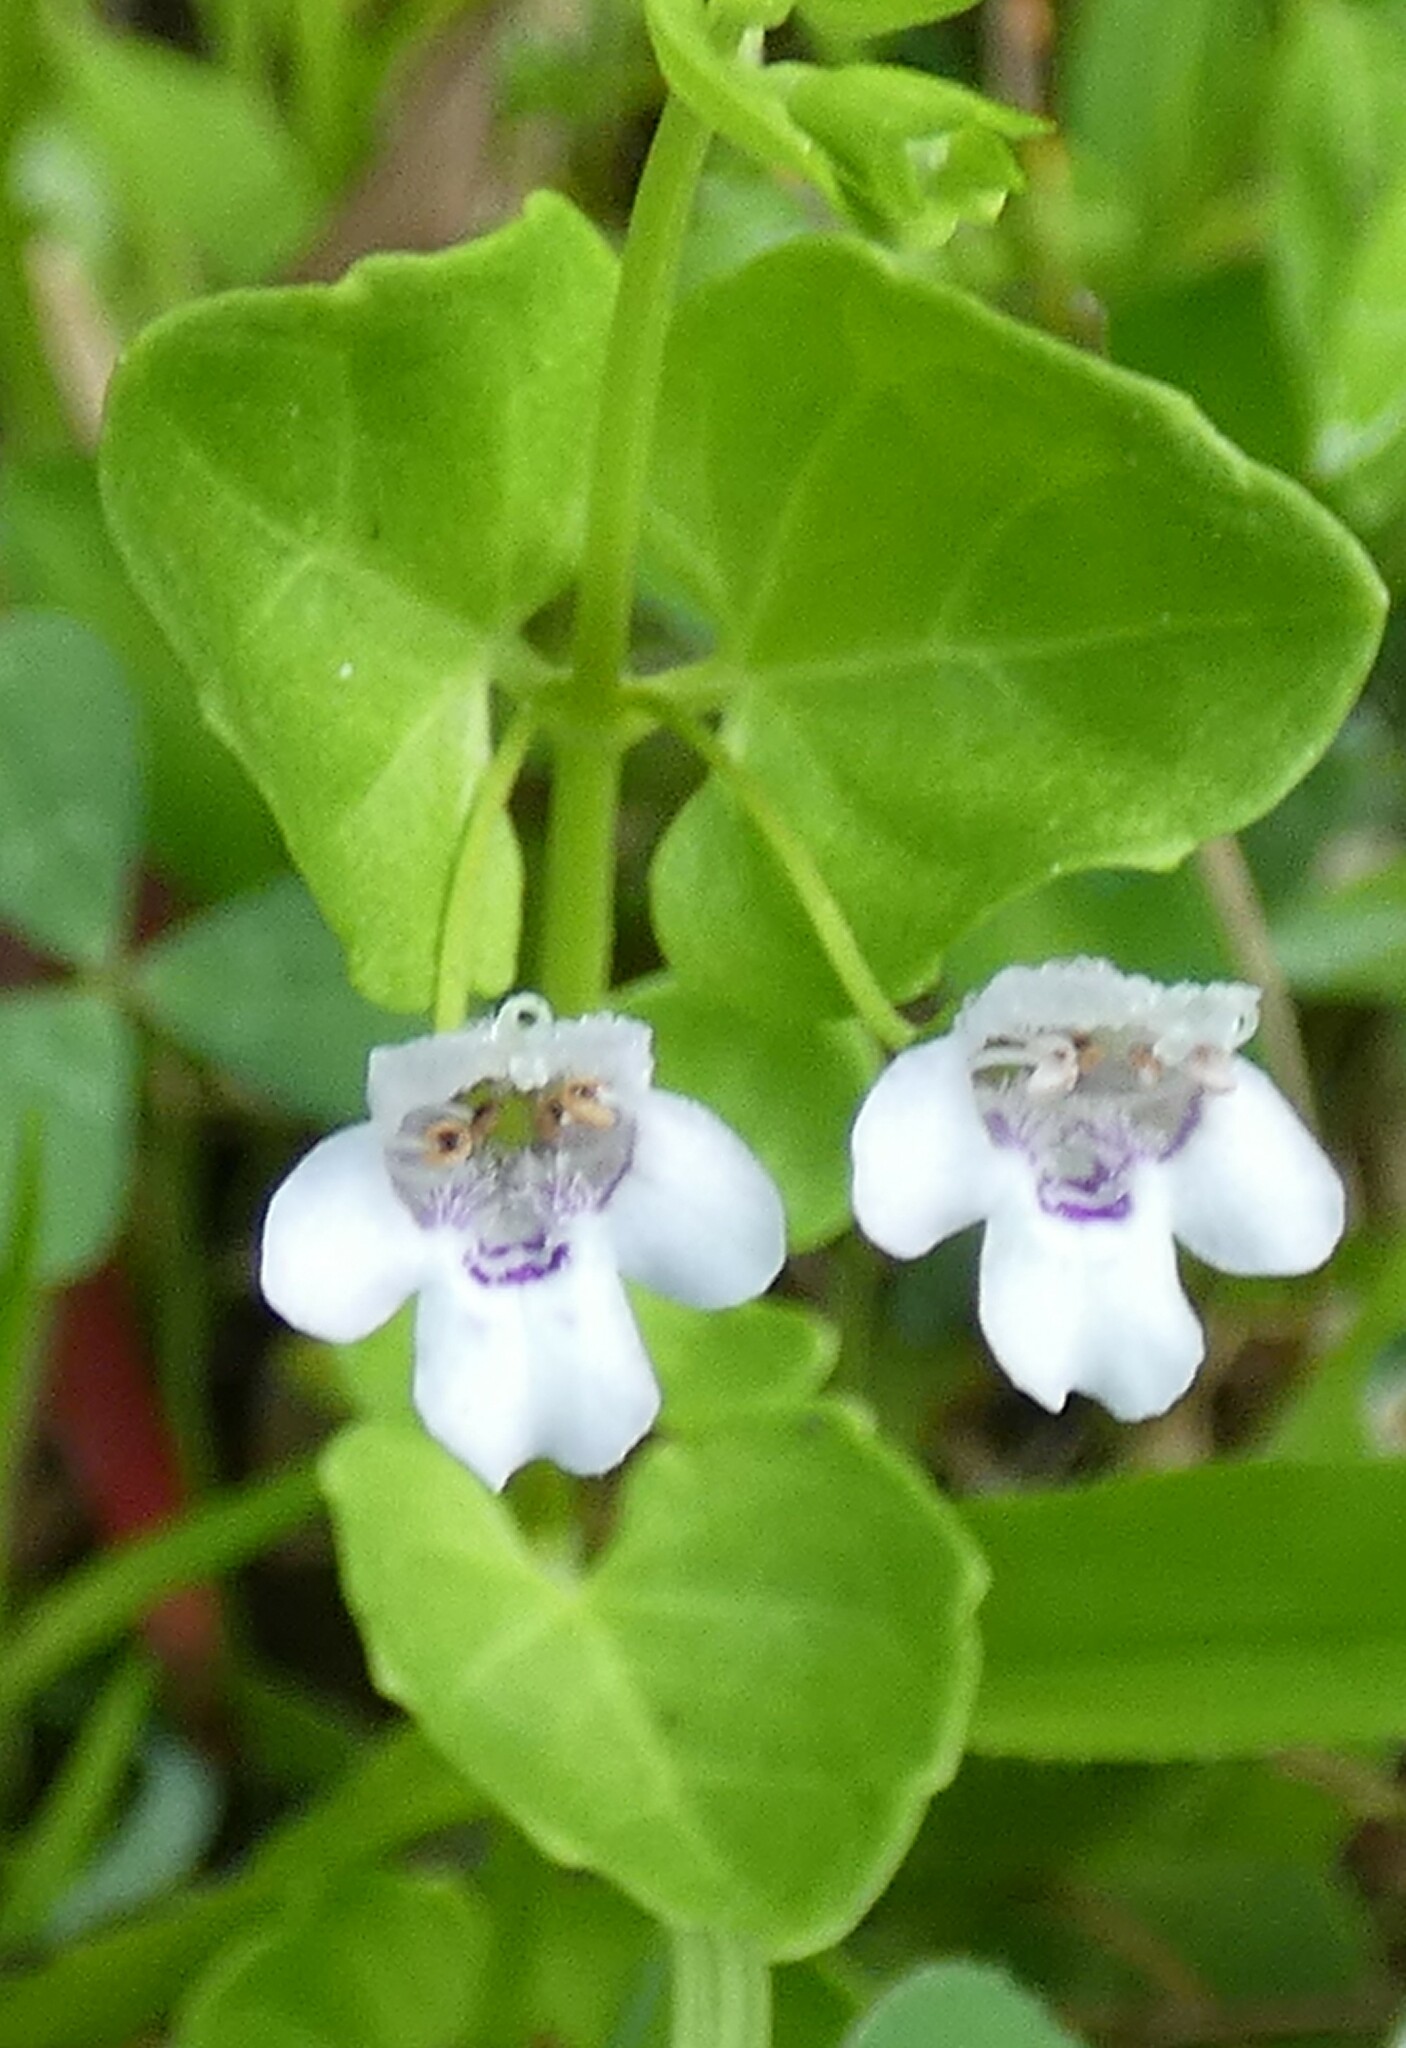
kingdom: Plantae
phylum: Tracheophyta
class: Magnoliopsida
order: Lamiales
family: Lamiaceae
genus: Clinopodium
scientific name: Clinopodium brownei
